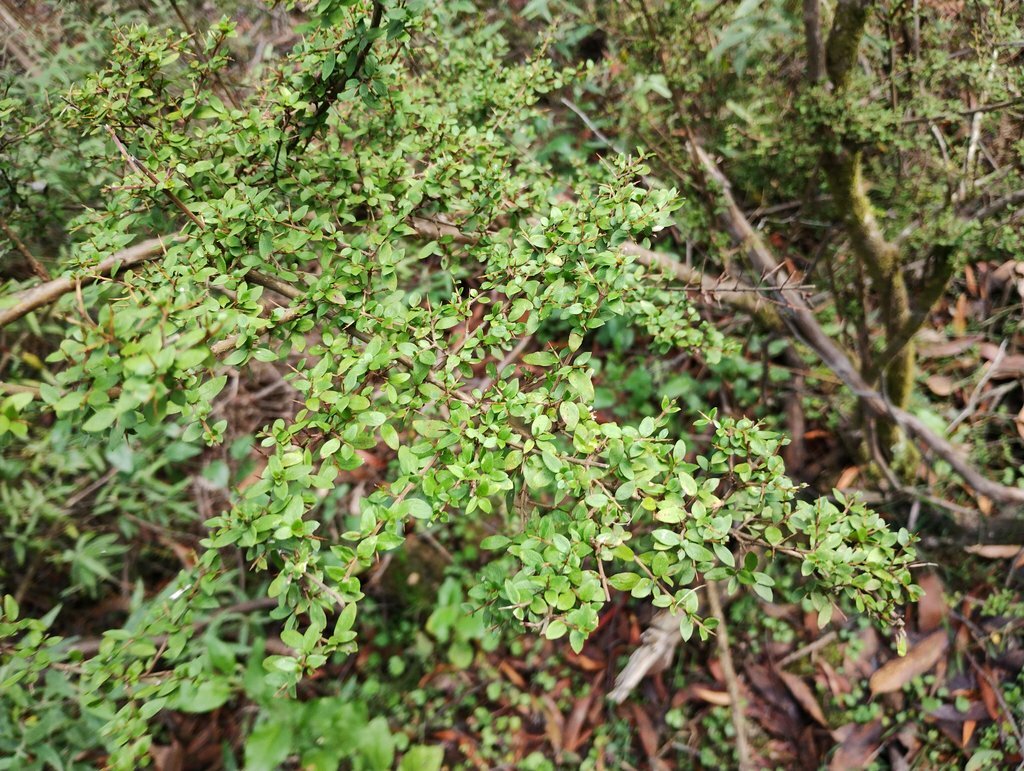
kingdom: Plantae
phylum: Tracheophyta
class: Magnoliopsida
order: Gentianales
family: Rubiaceae
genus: Coprosma
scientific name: Coprosma quadrifida
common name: Prickly currantbush
